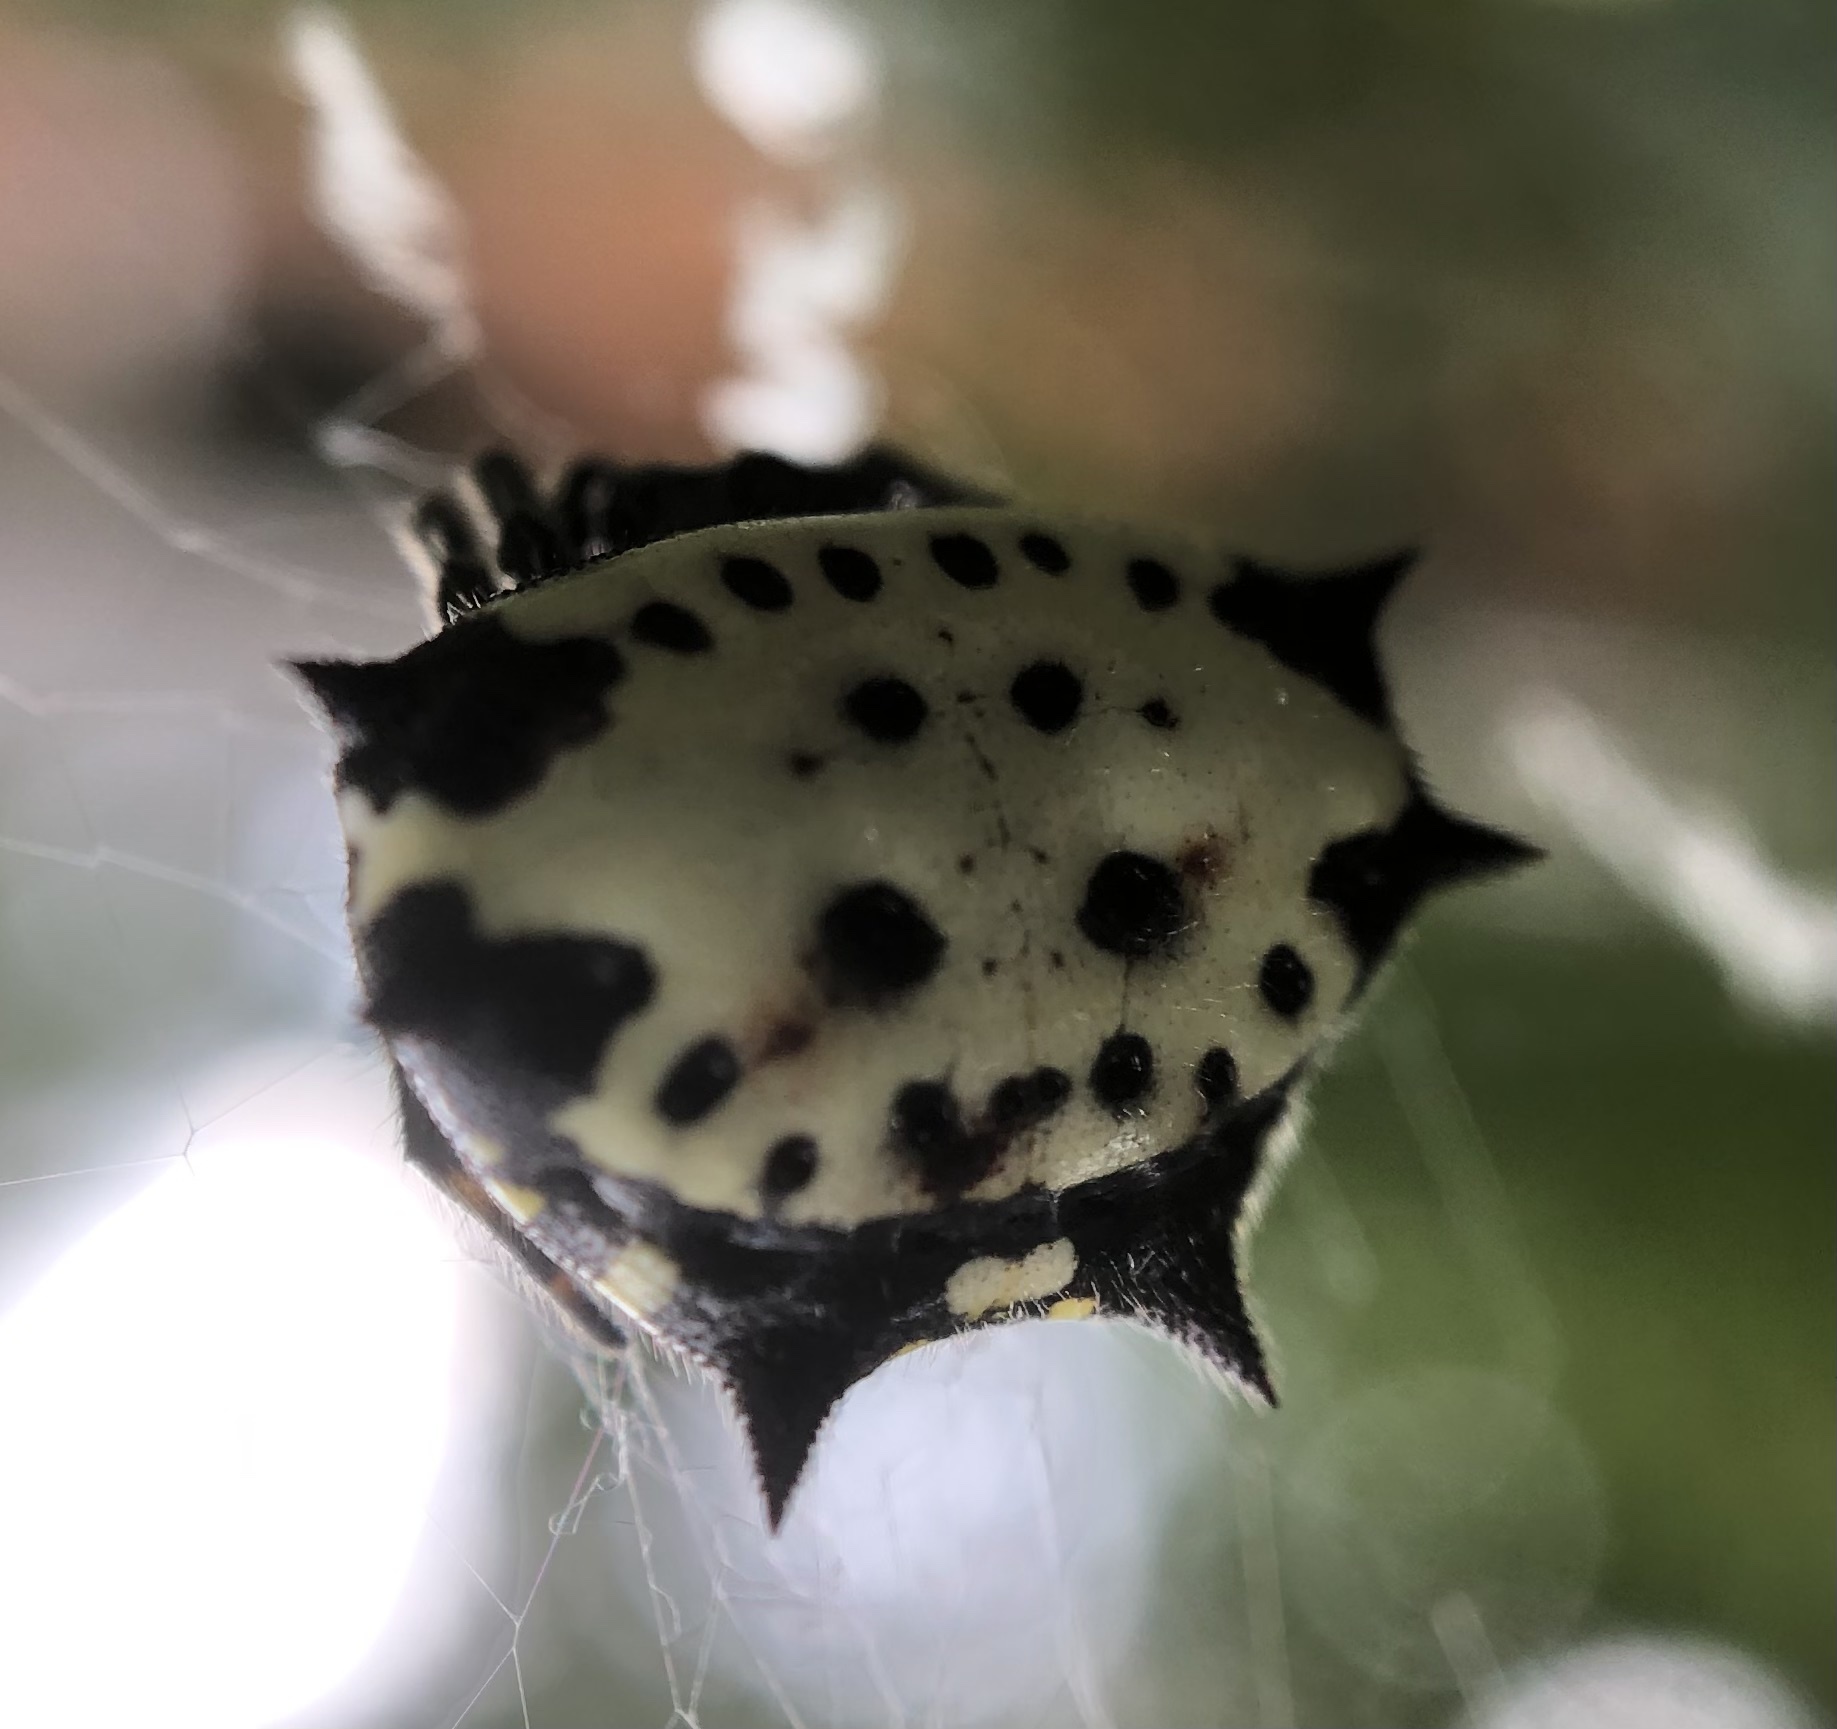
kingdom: Animalia
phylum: Arthropoda
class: Arachnida
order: Araneae
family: Araneidae
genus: Gasteracantha
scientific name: Gasteracantha cancriformis
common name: Orb weavers
